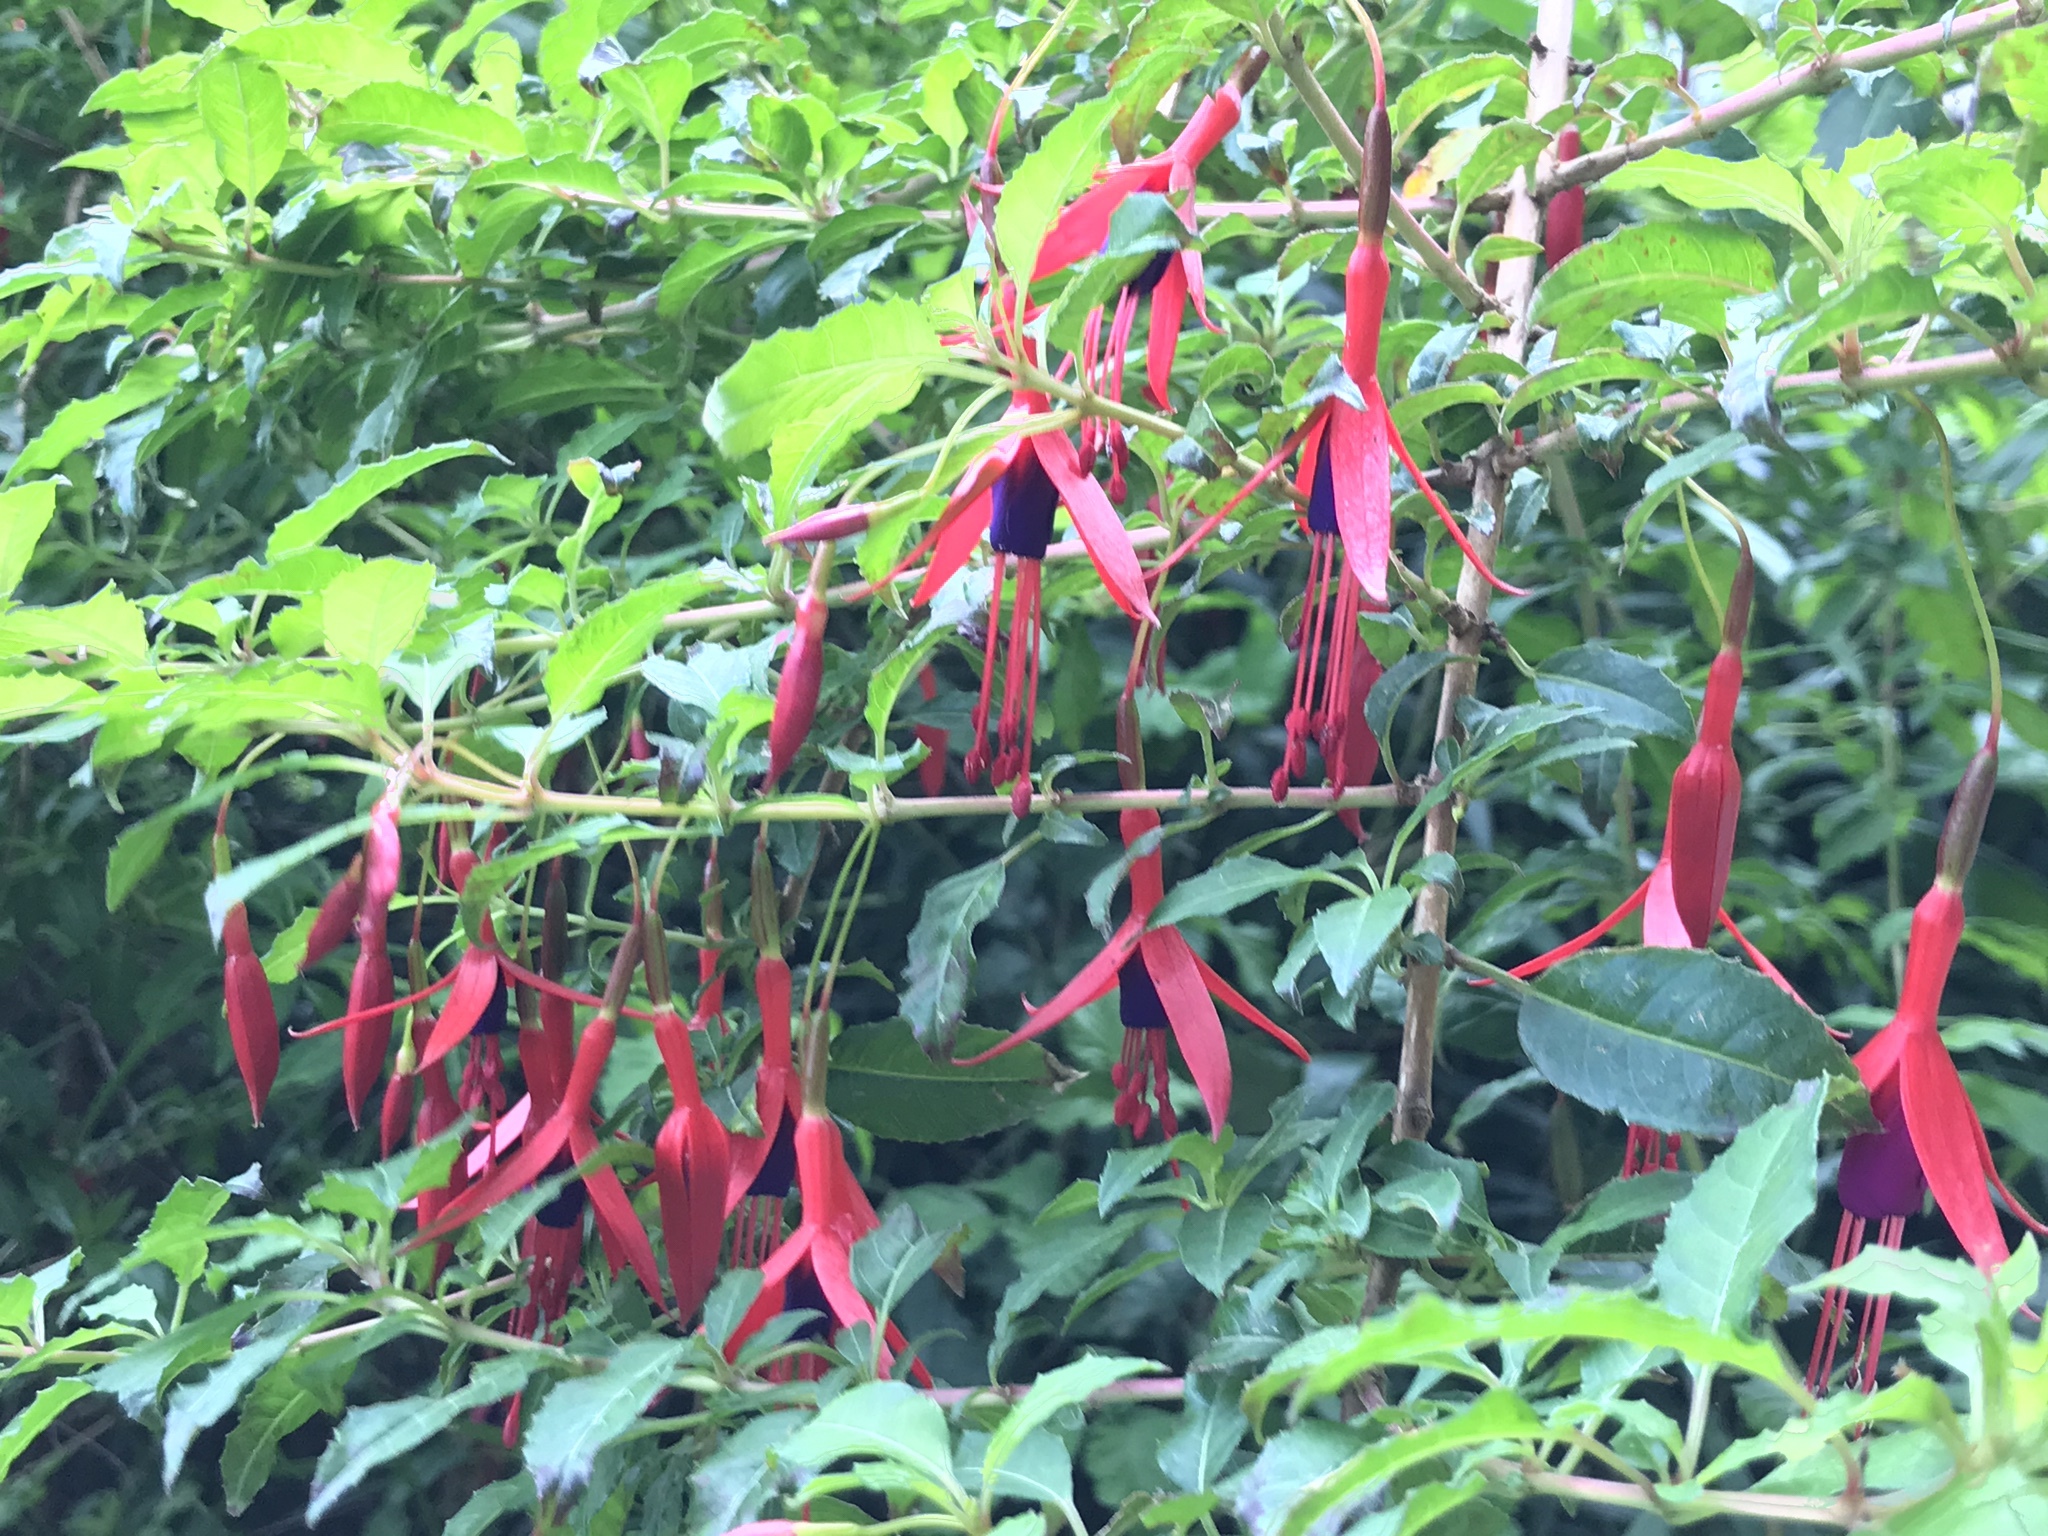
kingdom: Plantae
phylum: Tracheophyta
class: Magnoliopsida
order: Myrtales
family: Onagraceae
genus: Fuchsia
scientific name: Fuchsia magellanica
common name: Hardy fuchsia
